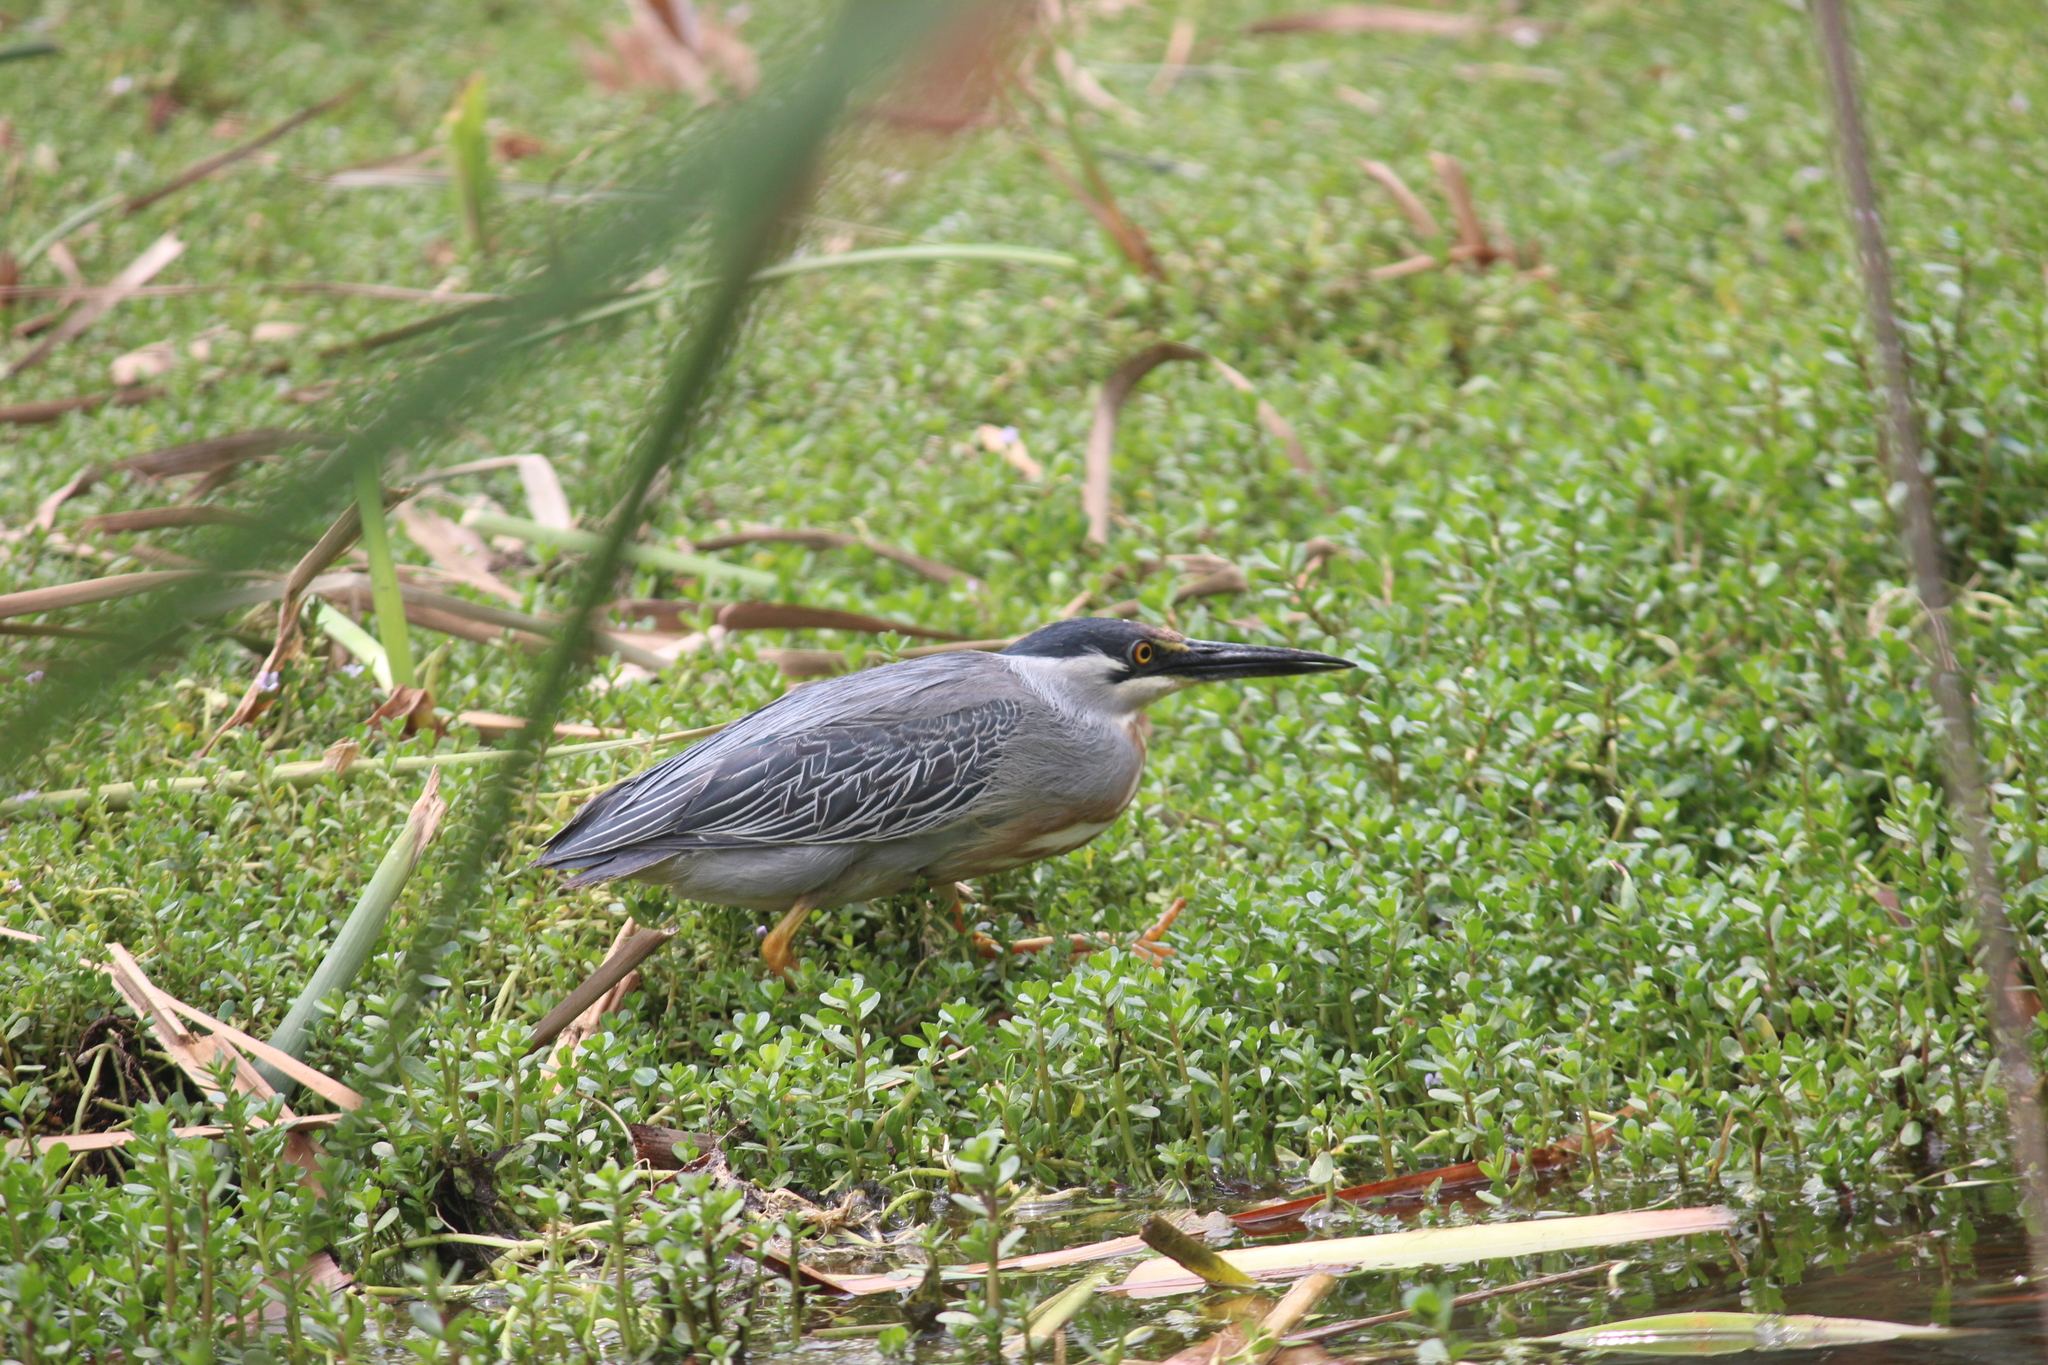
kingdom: Animalia
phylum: Chordata
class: Aves
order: Pelecaniformes
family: Ardeidae
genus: Butorides
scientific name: Butorides striata
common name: Striated heron
